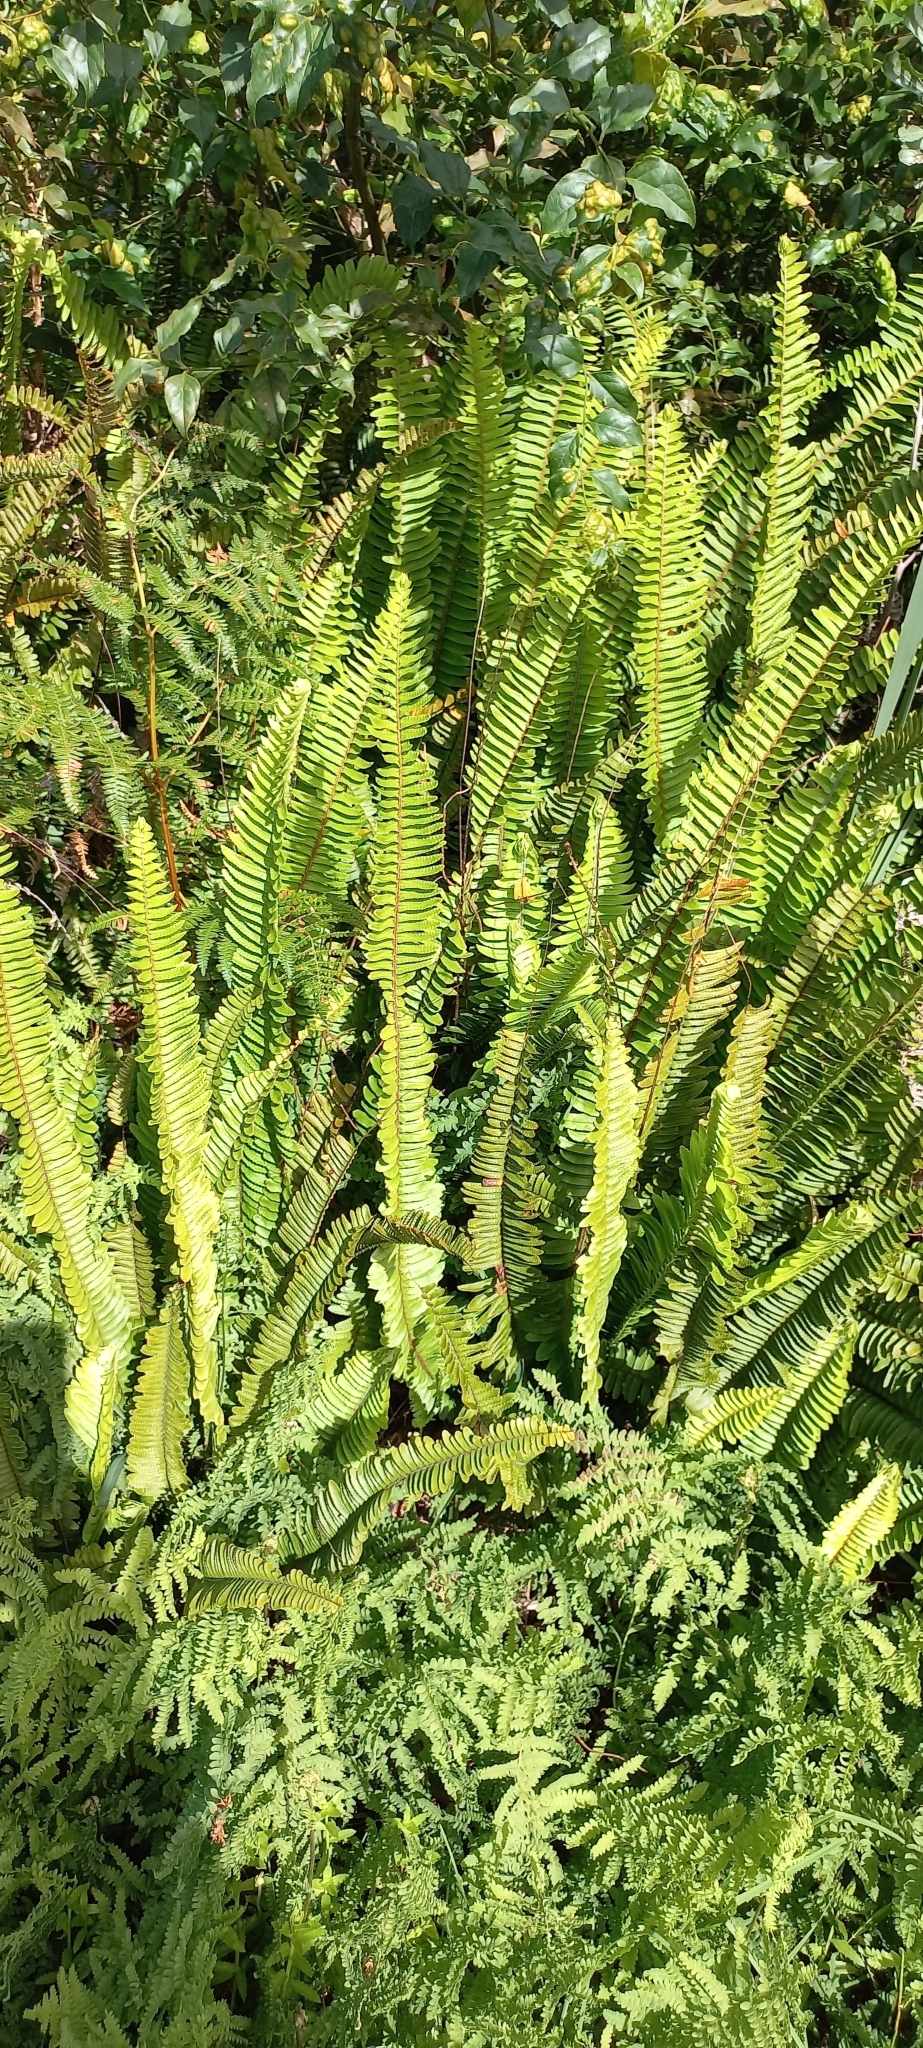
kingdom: Plantae
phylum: Tracheophyta
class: Polypodiopsida
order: Polypodiales
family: Nephrolepidaceae
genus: Nephrolepis
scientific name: Nephrolepis cordifolia
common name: Narrow swordfern
